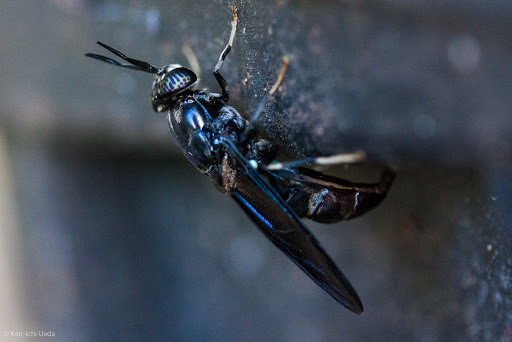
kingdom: Animalia
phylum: Arthropoda
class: Insecta
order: Diptera
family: Stratiomyidae
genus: Hermetia
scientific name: Hermetia illucens
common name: Black soldier fly
